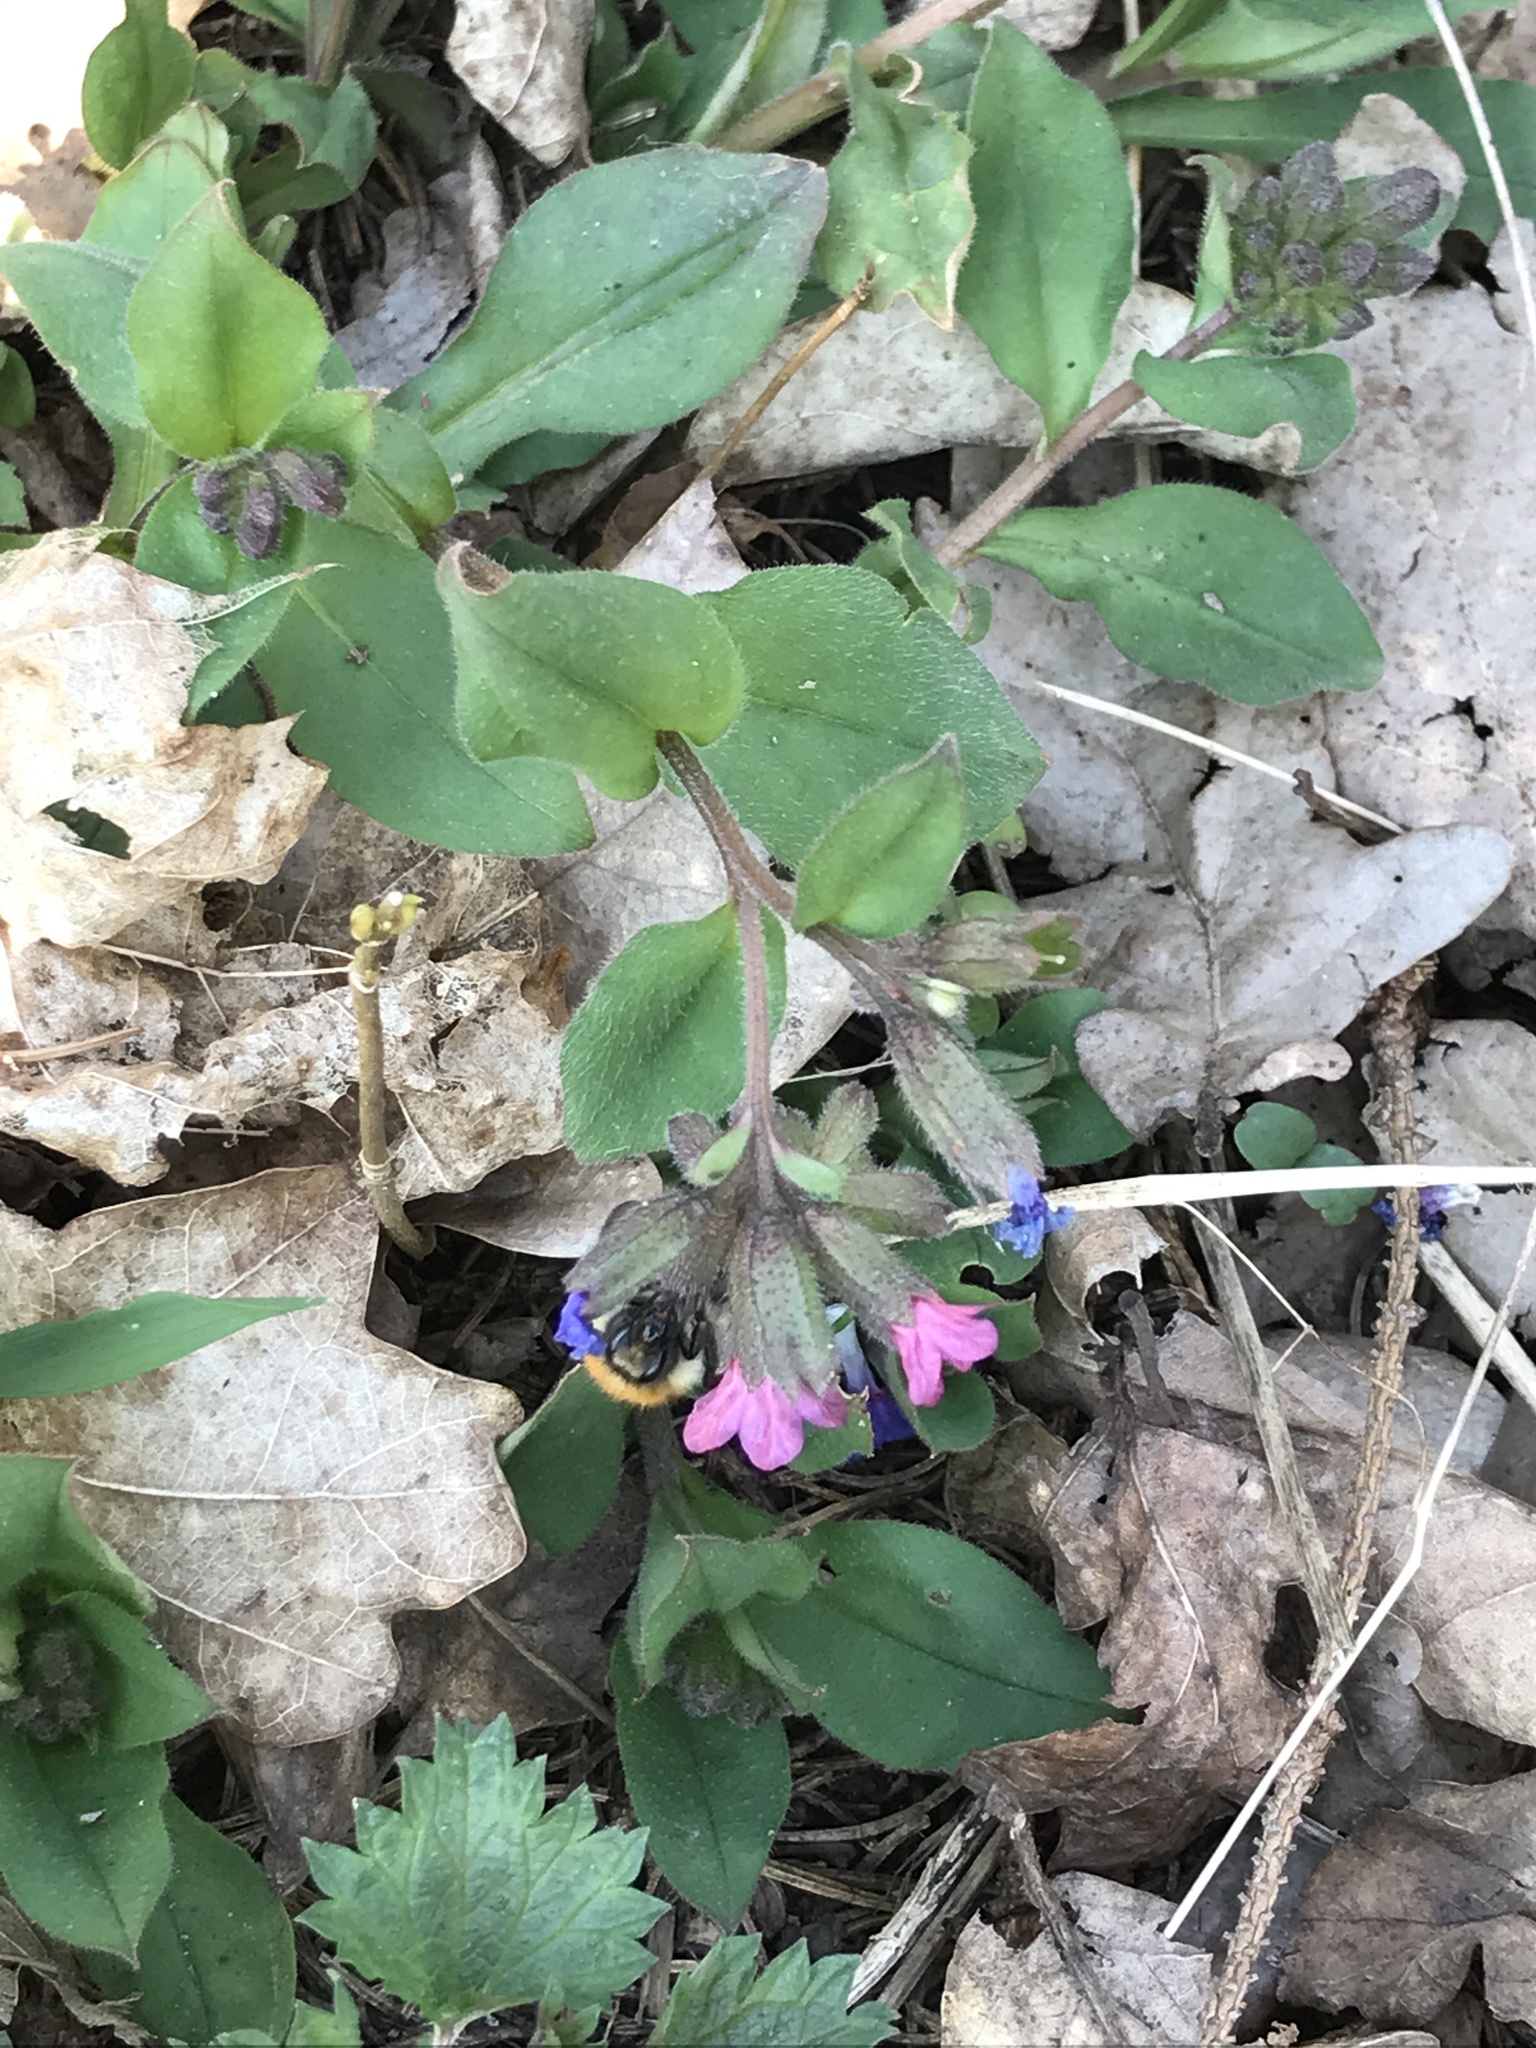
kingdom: Plantae
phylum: Tracheophyta
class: Magnoliopsida
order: Boraginales
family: Boraginaceae
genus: Pulmonaria
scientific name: Pulmonaria obscura
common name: Suffolk lungwort
